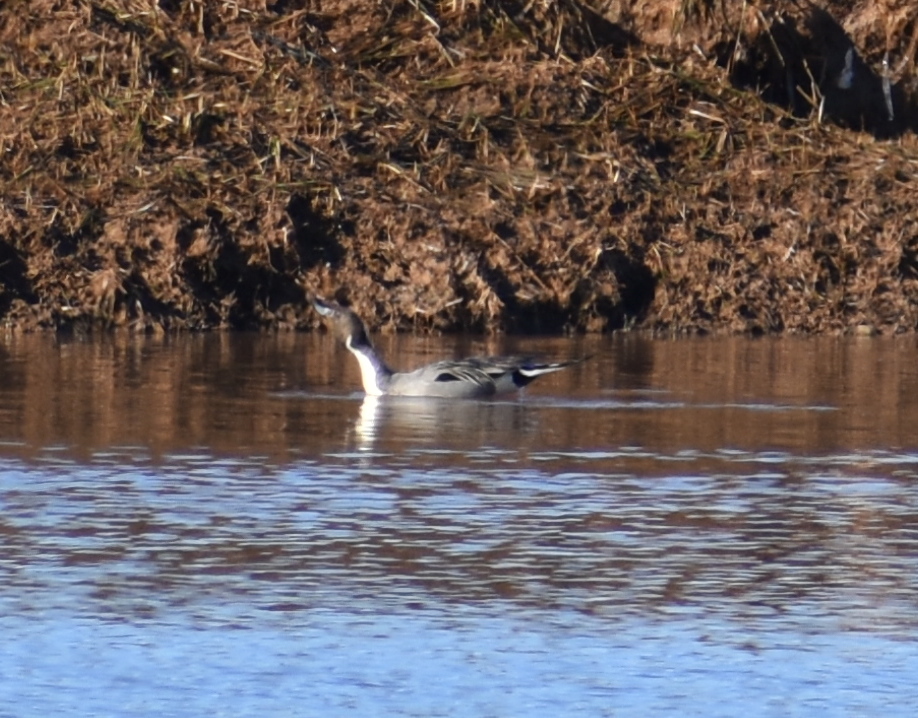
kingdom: Animalia
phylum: Chordata
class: Aves
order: Anseriformes
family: Anatidae
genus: Anas
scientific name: Anas acuta
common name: Northern pintail
